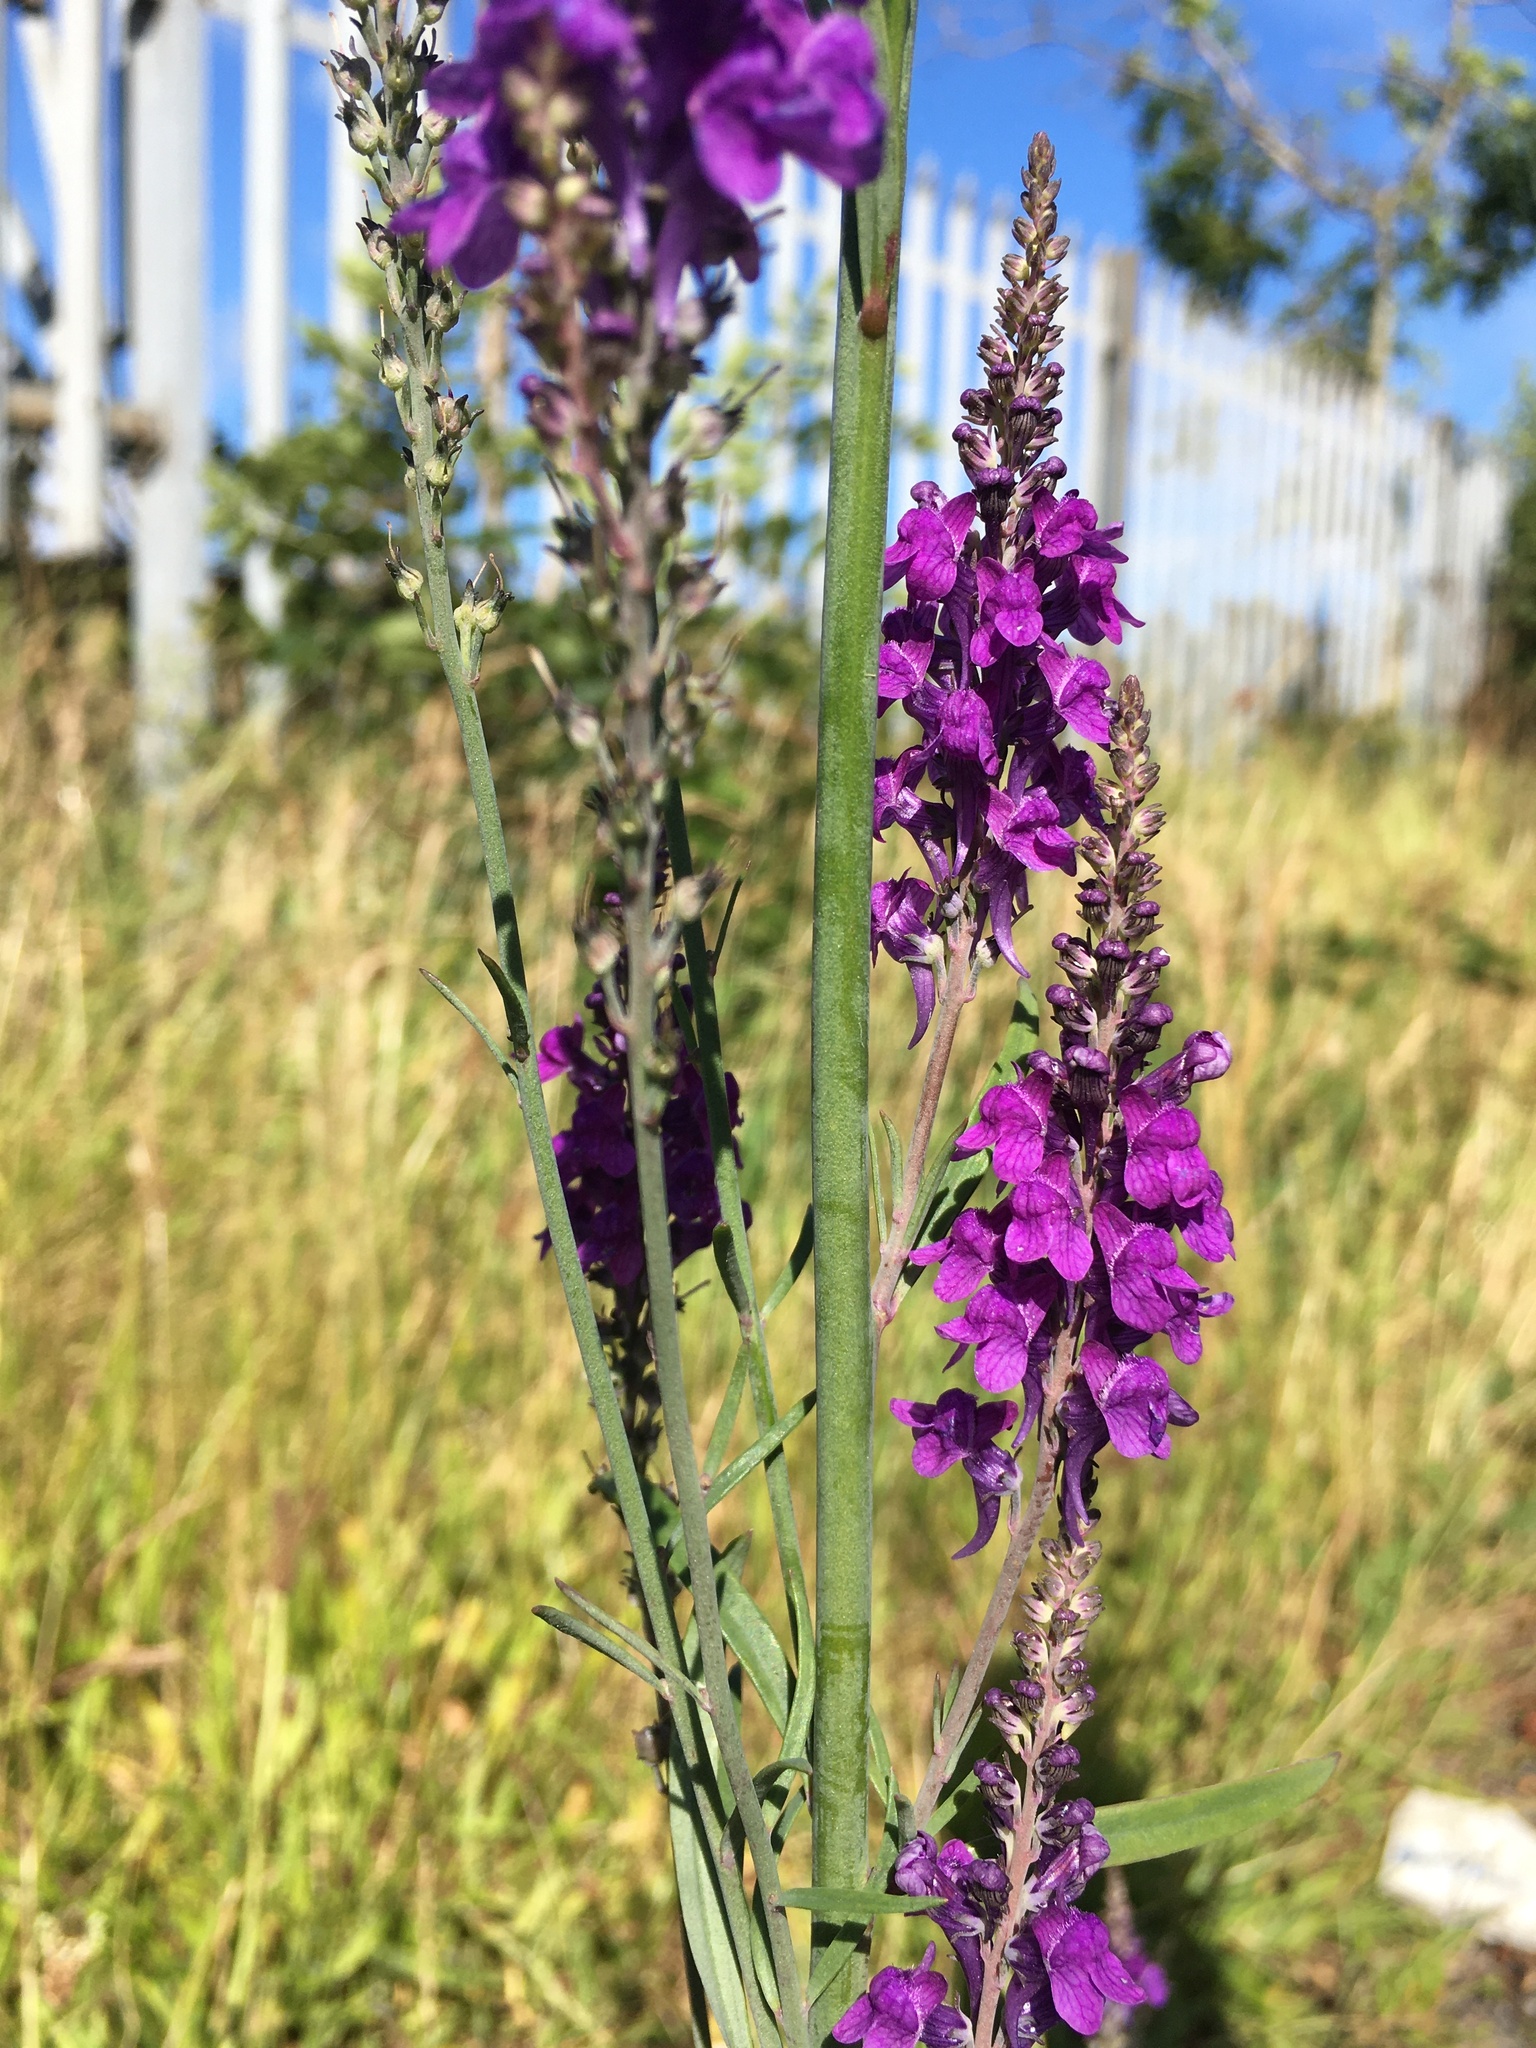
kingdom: Plantae
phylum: Tracheophyta
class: Magnoliopsida
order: Lamiales
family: Plantaginaceae
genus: Linaria
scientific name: Linaria purpurea
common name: Purple toadflax
